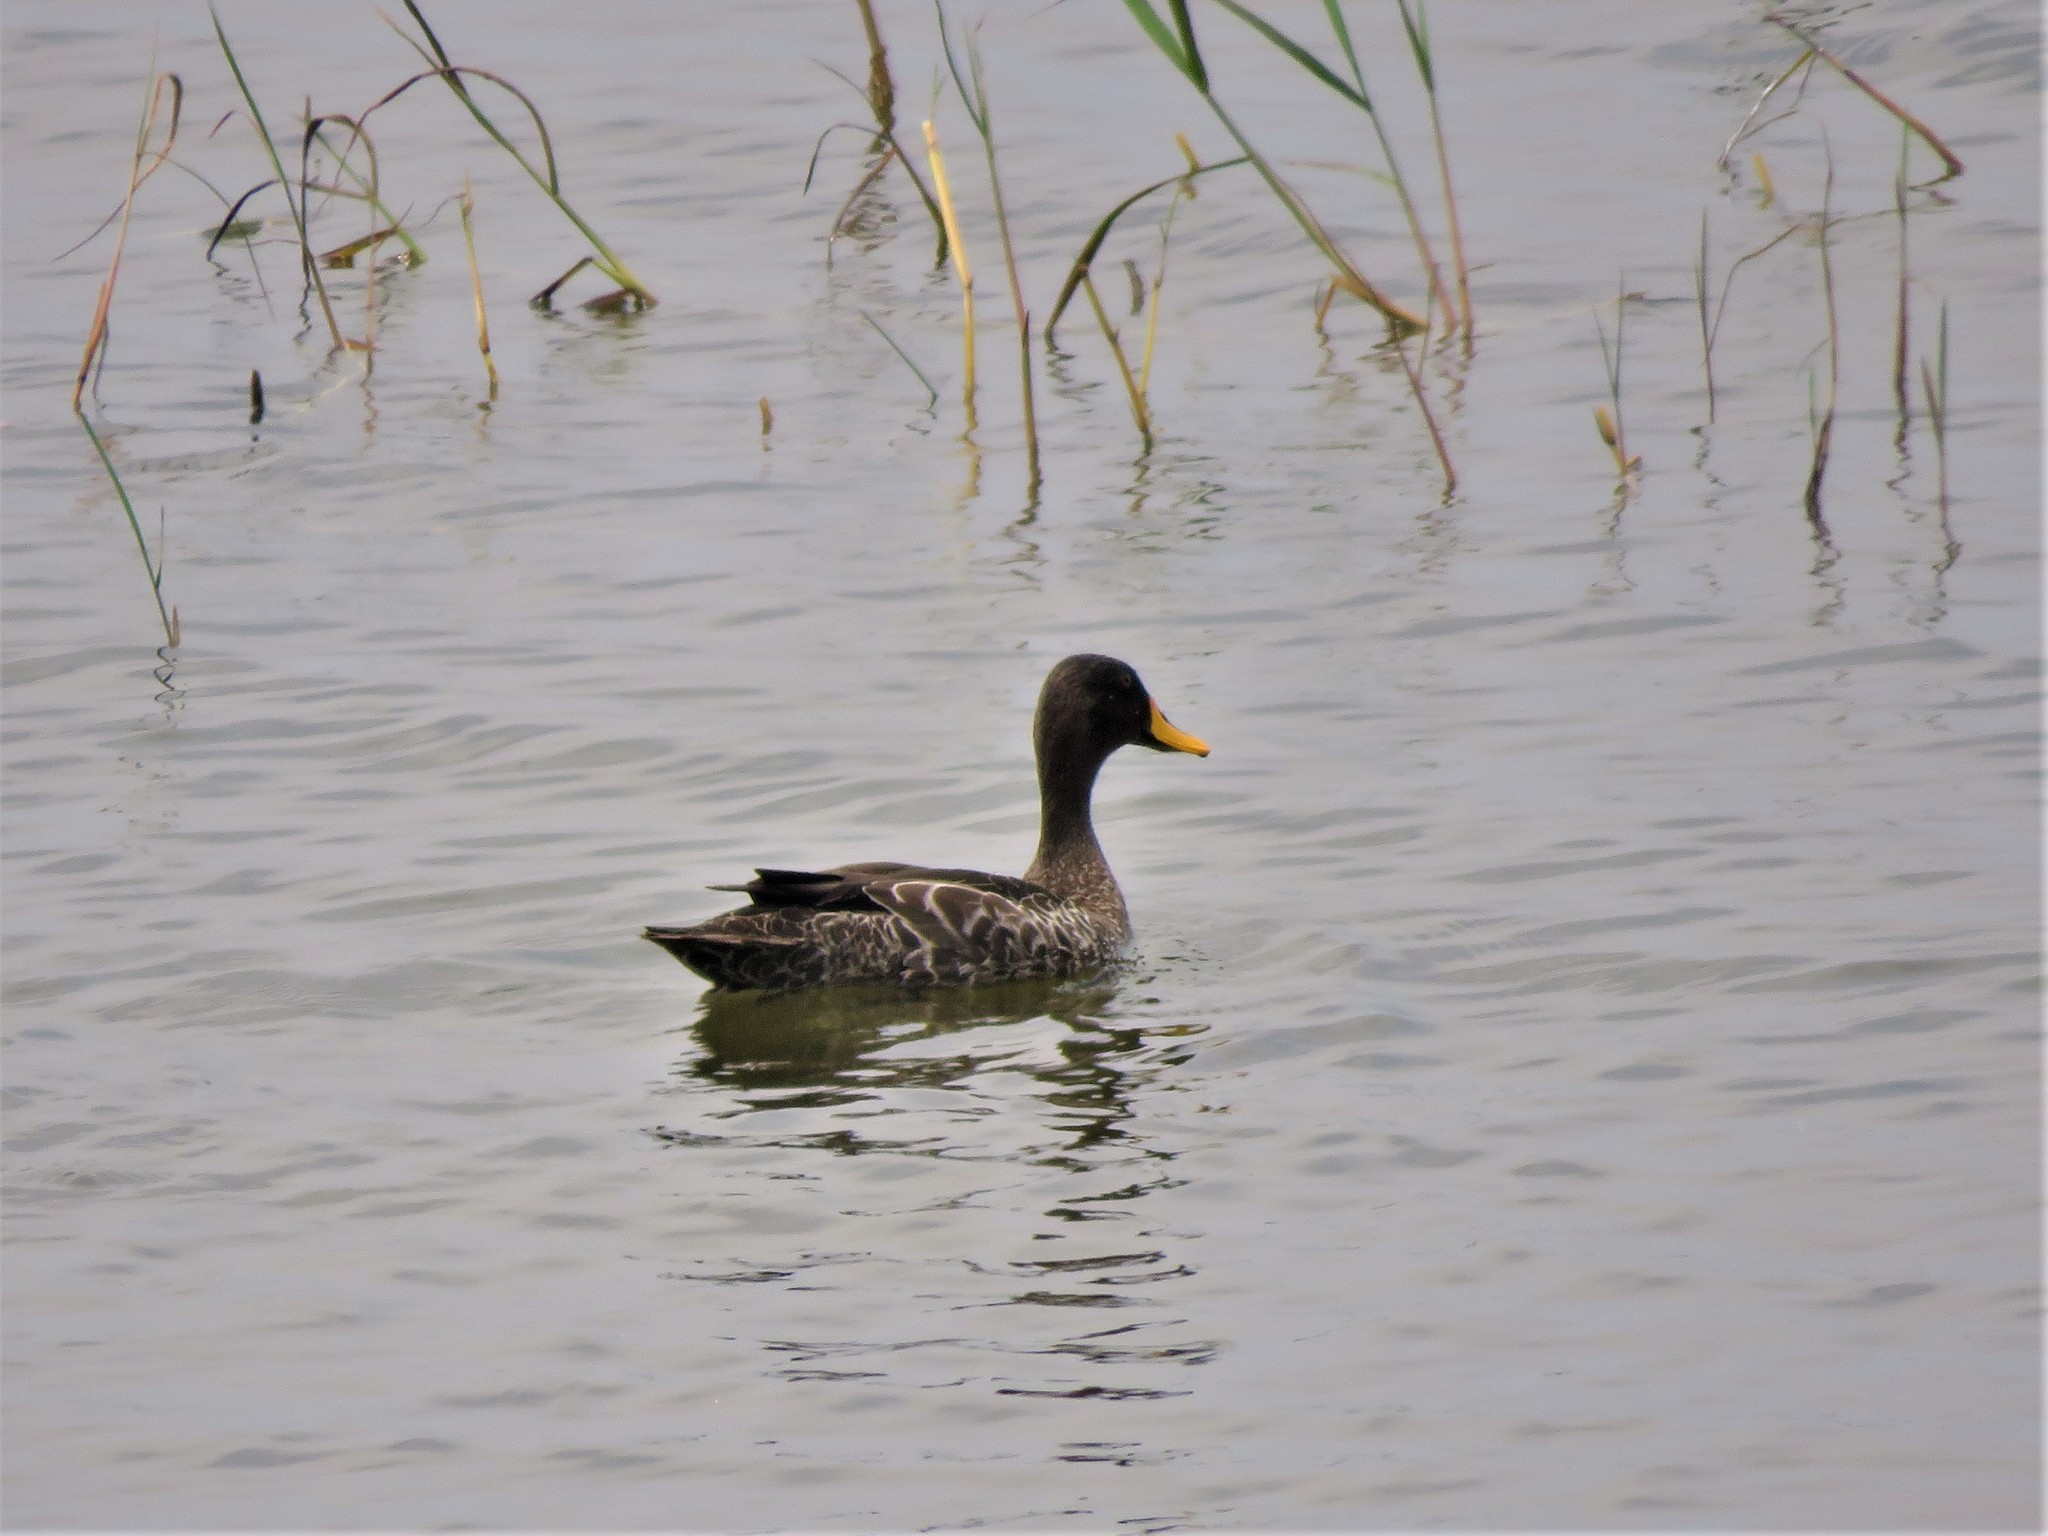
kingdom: Animalia
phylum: Chordata
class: Aves
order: Anseriformes
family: Anatidae
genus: Anas
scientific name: Anas undulata
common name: Yellow-billed duck
